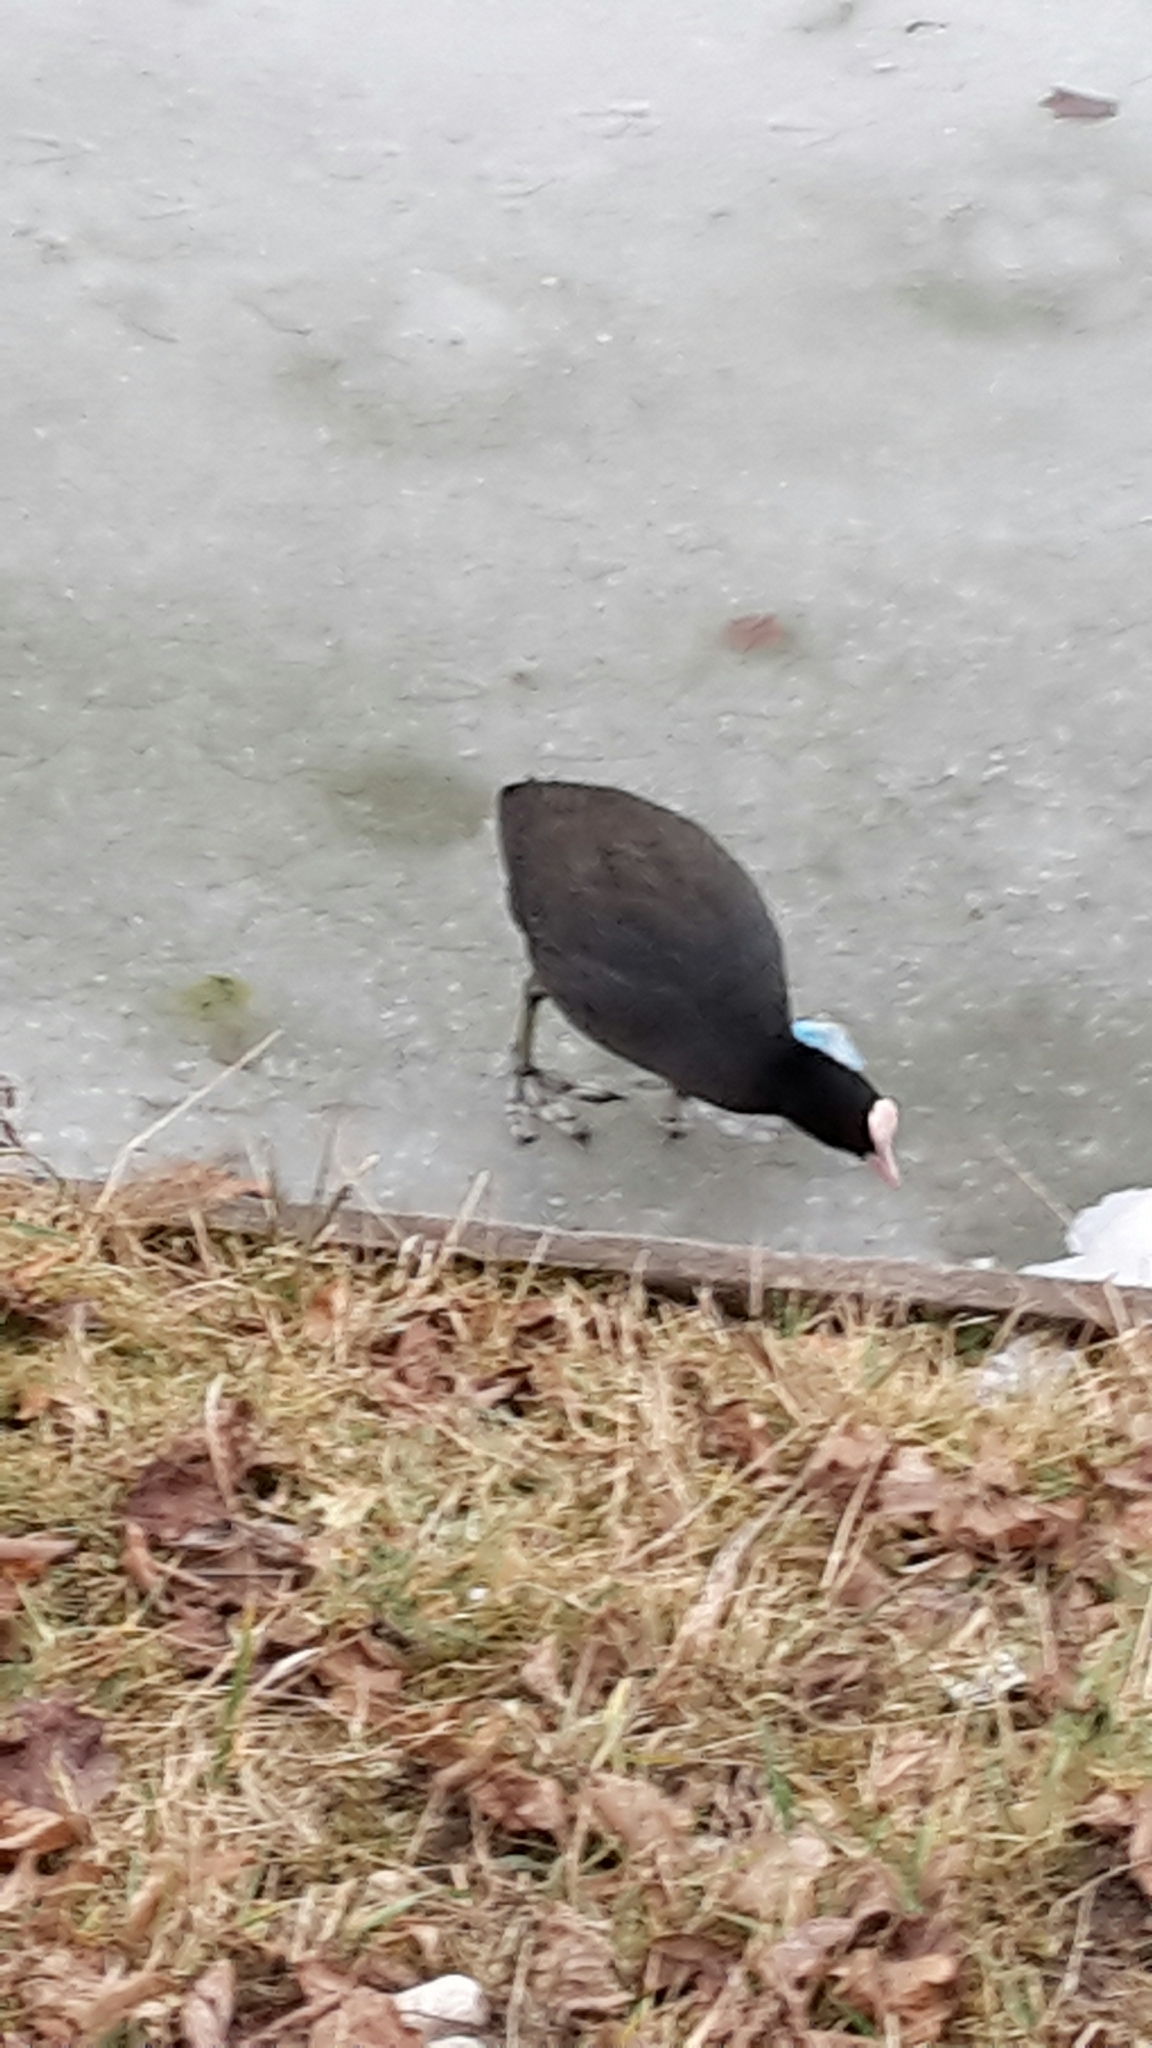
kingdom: Animalia
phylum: Chordata
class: Aves
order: Gruiformes
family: Rallidae
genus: Fulica
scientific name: Fulica atra
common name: Eurasian coot
